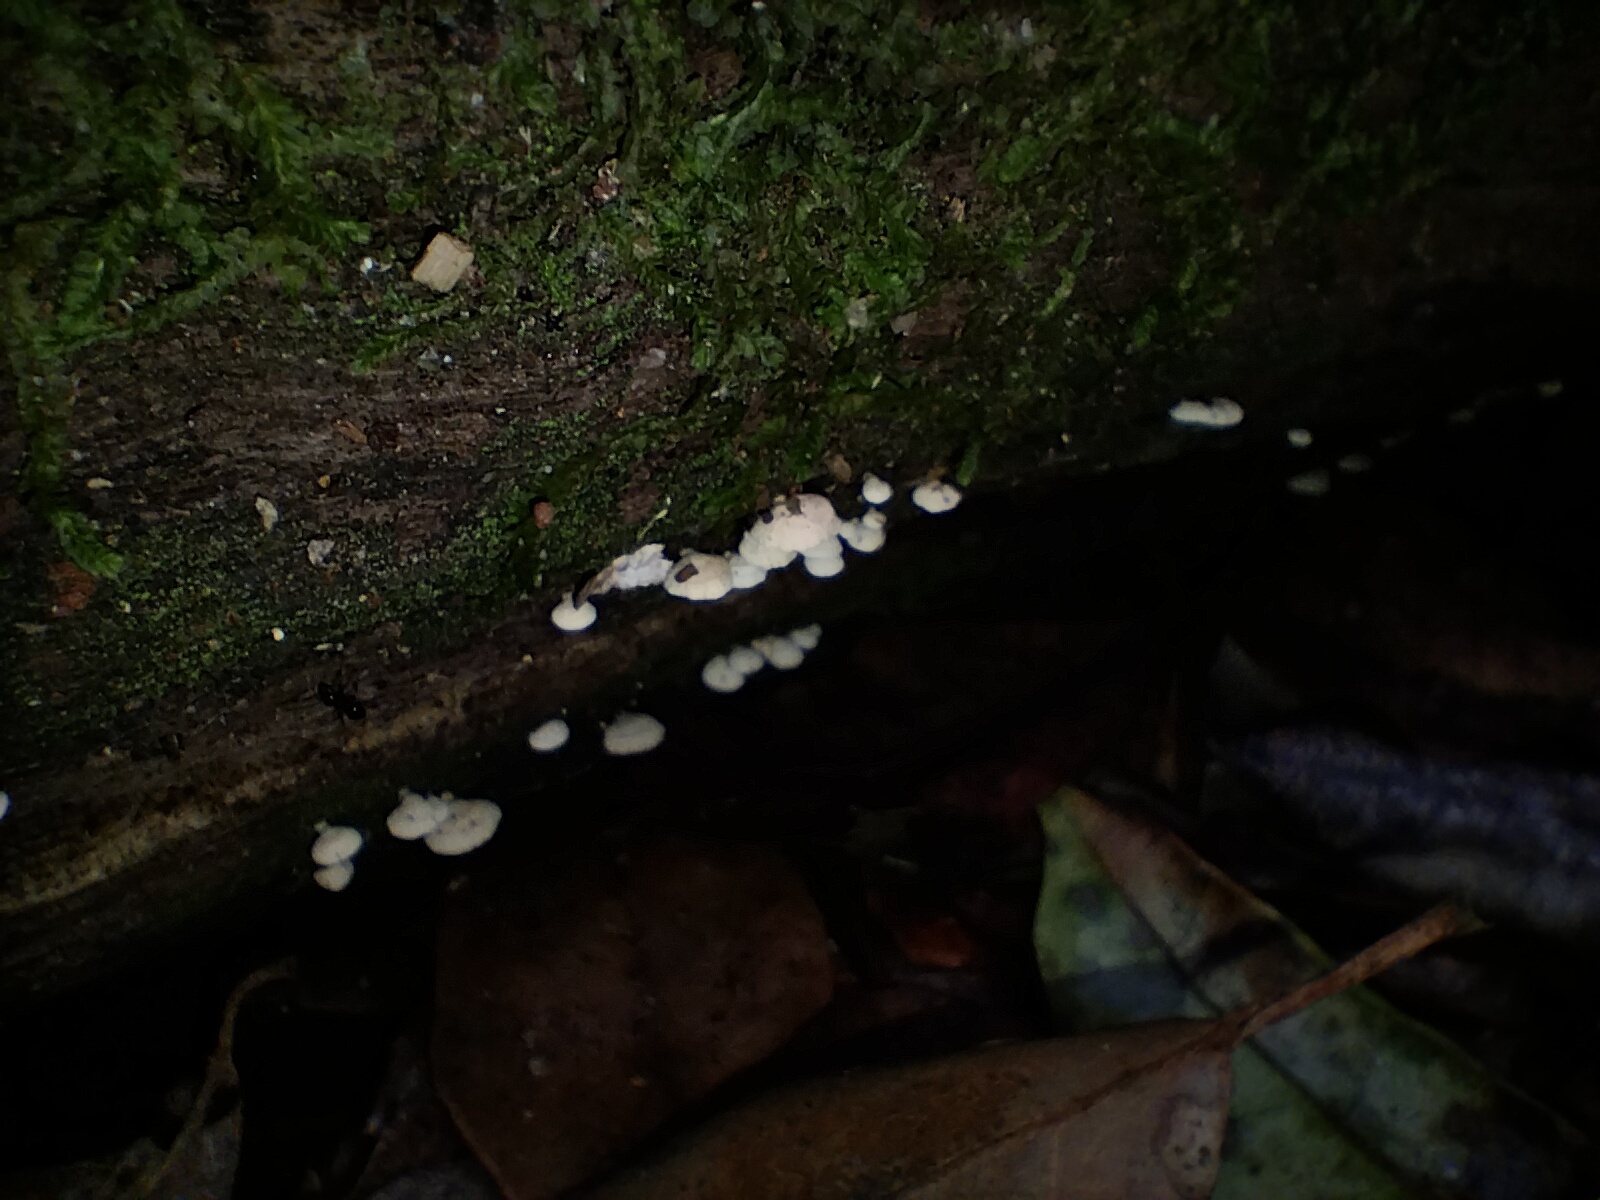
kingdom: Fungi
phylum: Basidiomycota
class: Agaricomycetes
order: Agaricales
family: Mycenaceae
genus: Panellus
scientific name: Panellus luxfilamentus
